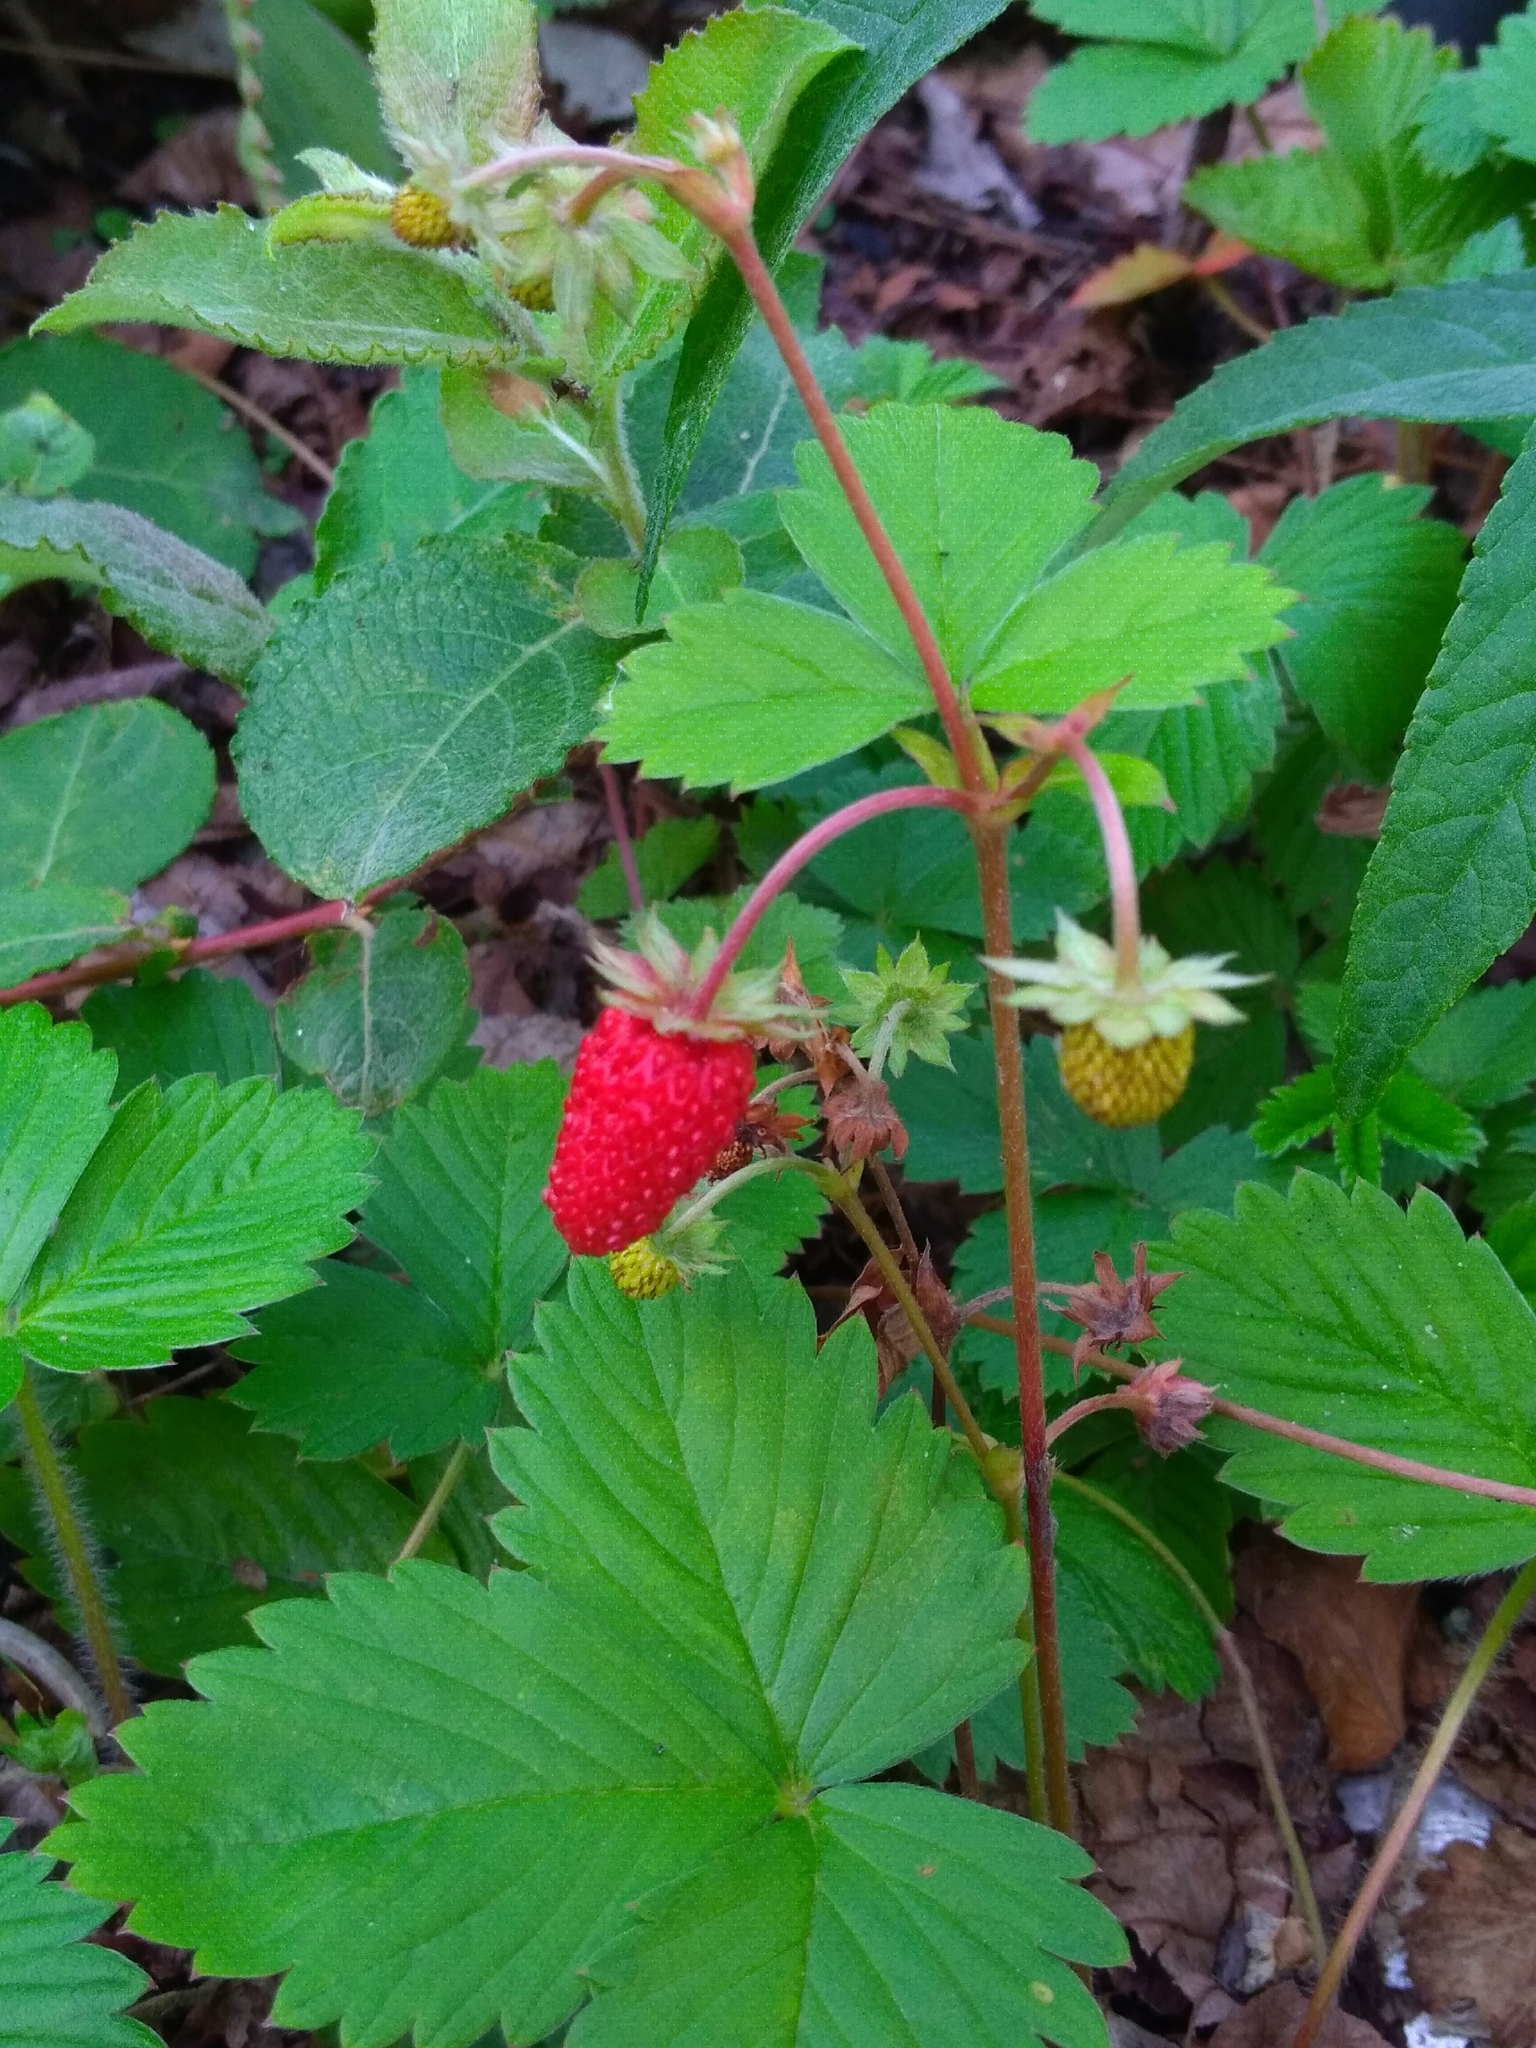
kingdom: Plantae
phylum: Tracheophyta
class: Magnoliopsida
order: Rosales
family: Rosaceae
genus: Fragaria
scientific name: Fragaria vesca
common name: Wild strawberry
